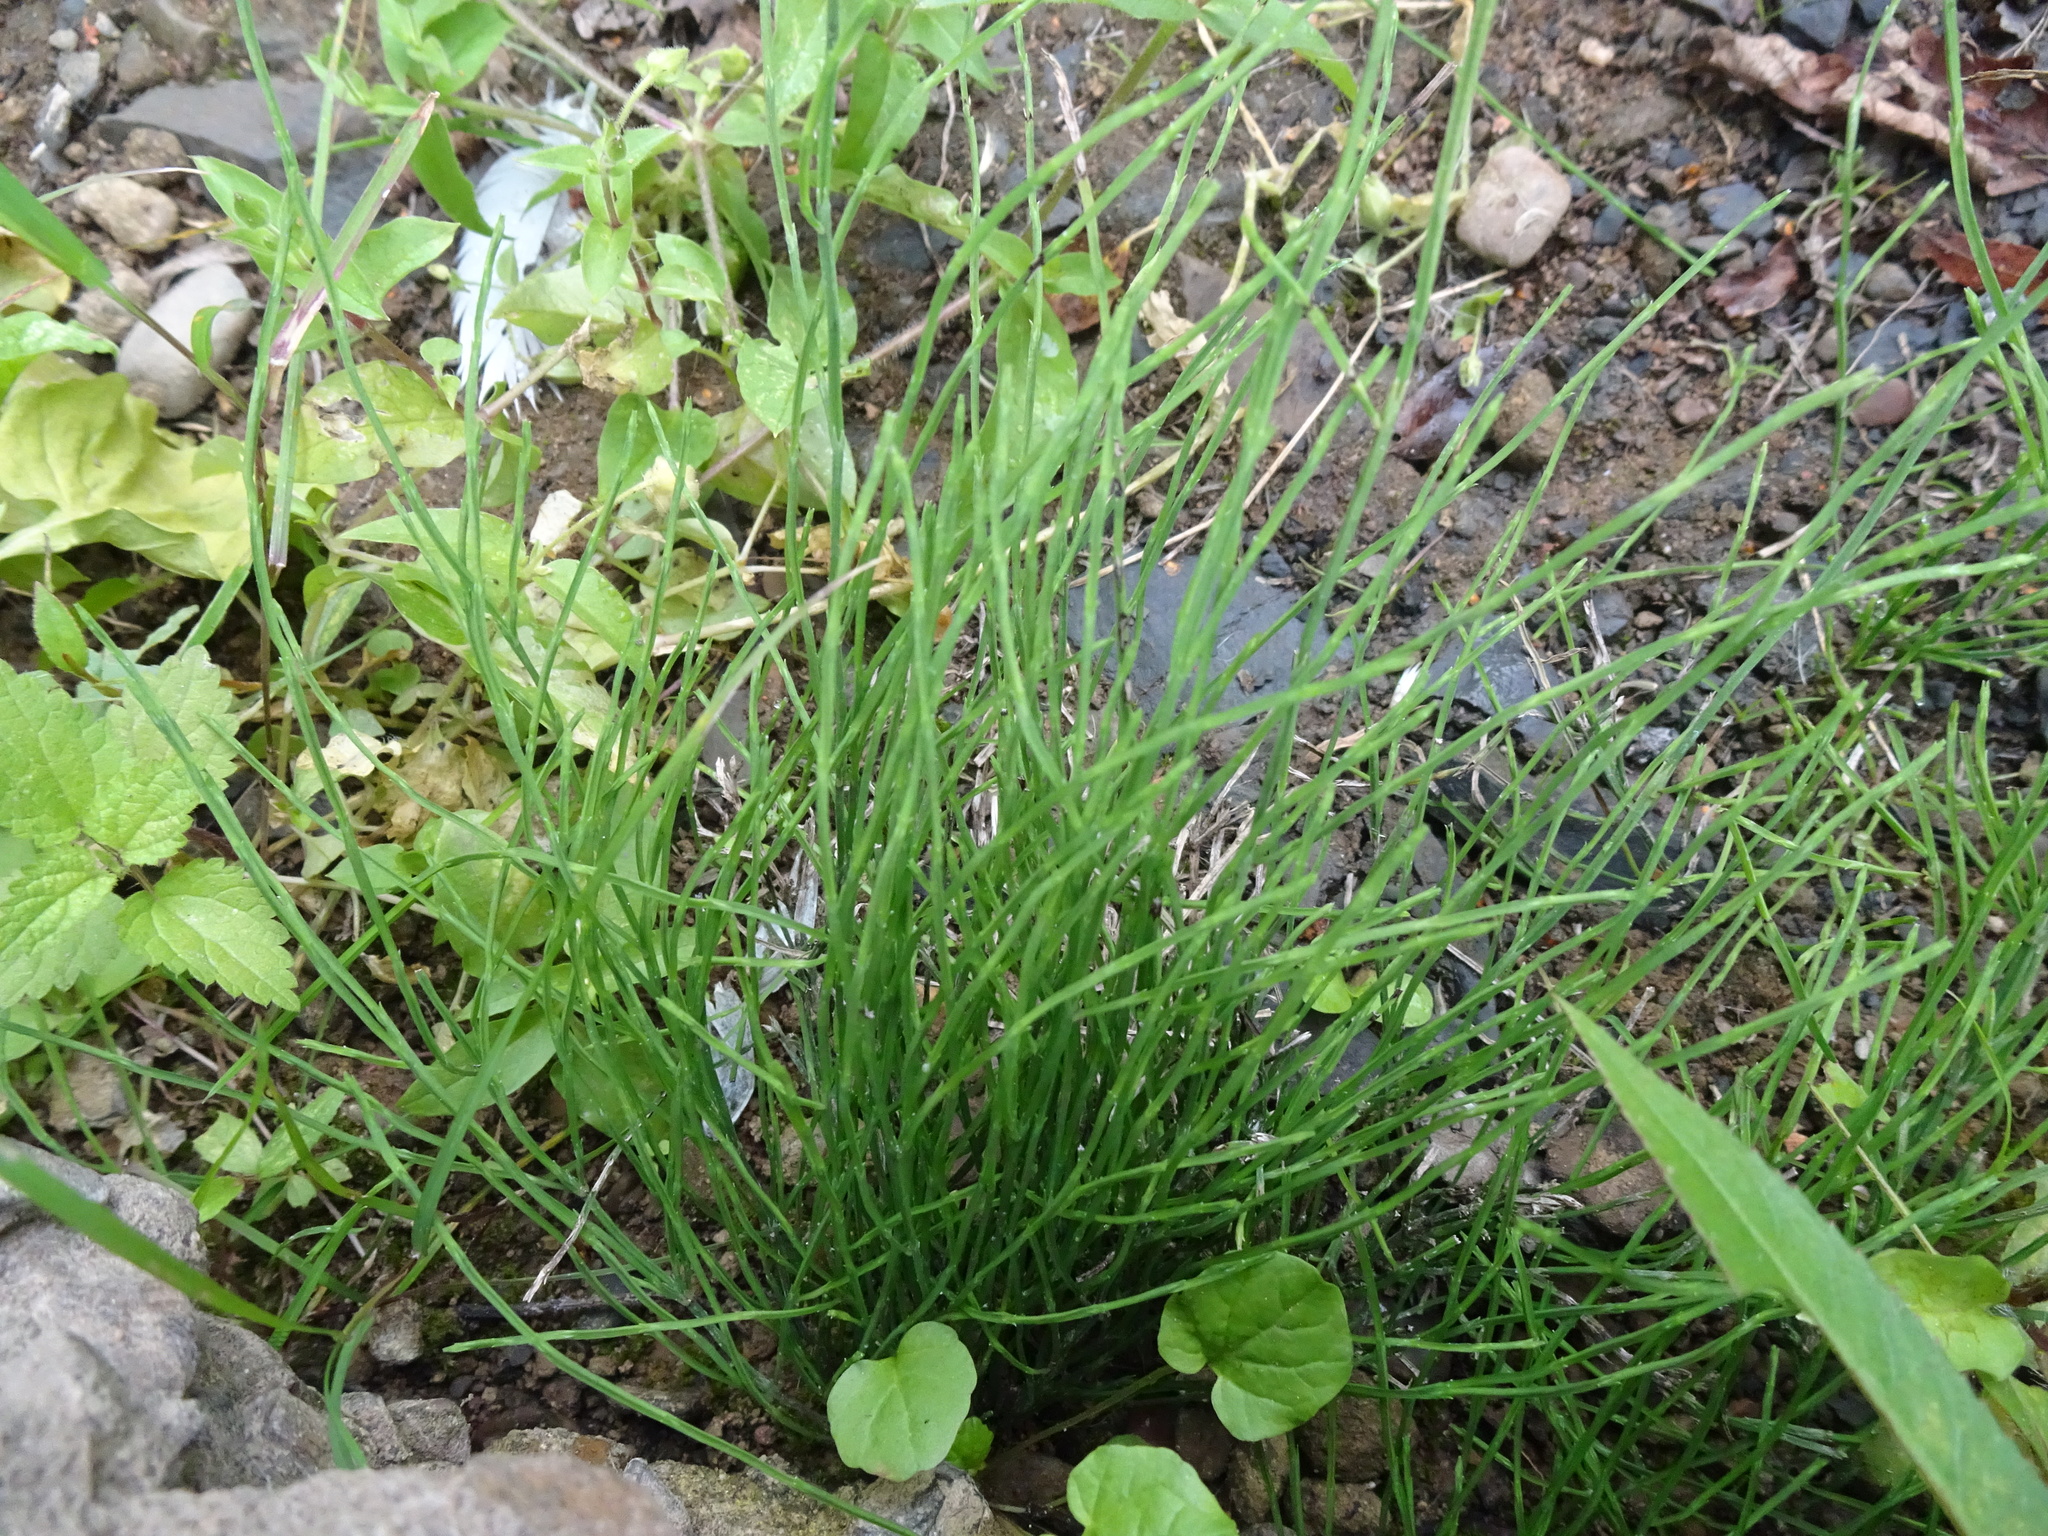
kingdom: Plantae
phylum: Tracheophyta
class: Polypodiopsida
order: Equisetales
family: Equisetaceae
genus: Equisetum
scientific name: Equisetum arvense
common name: Field horsetail
